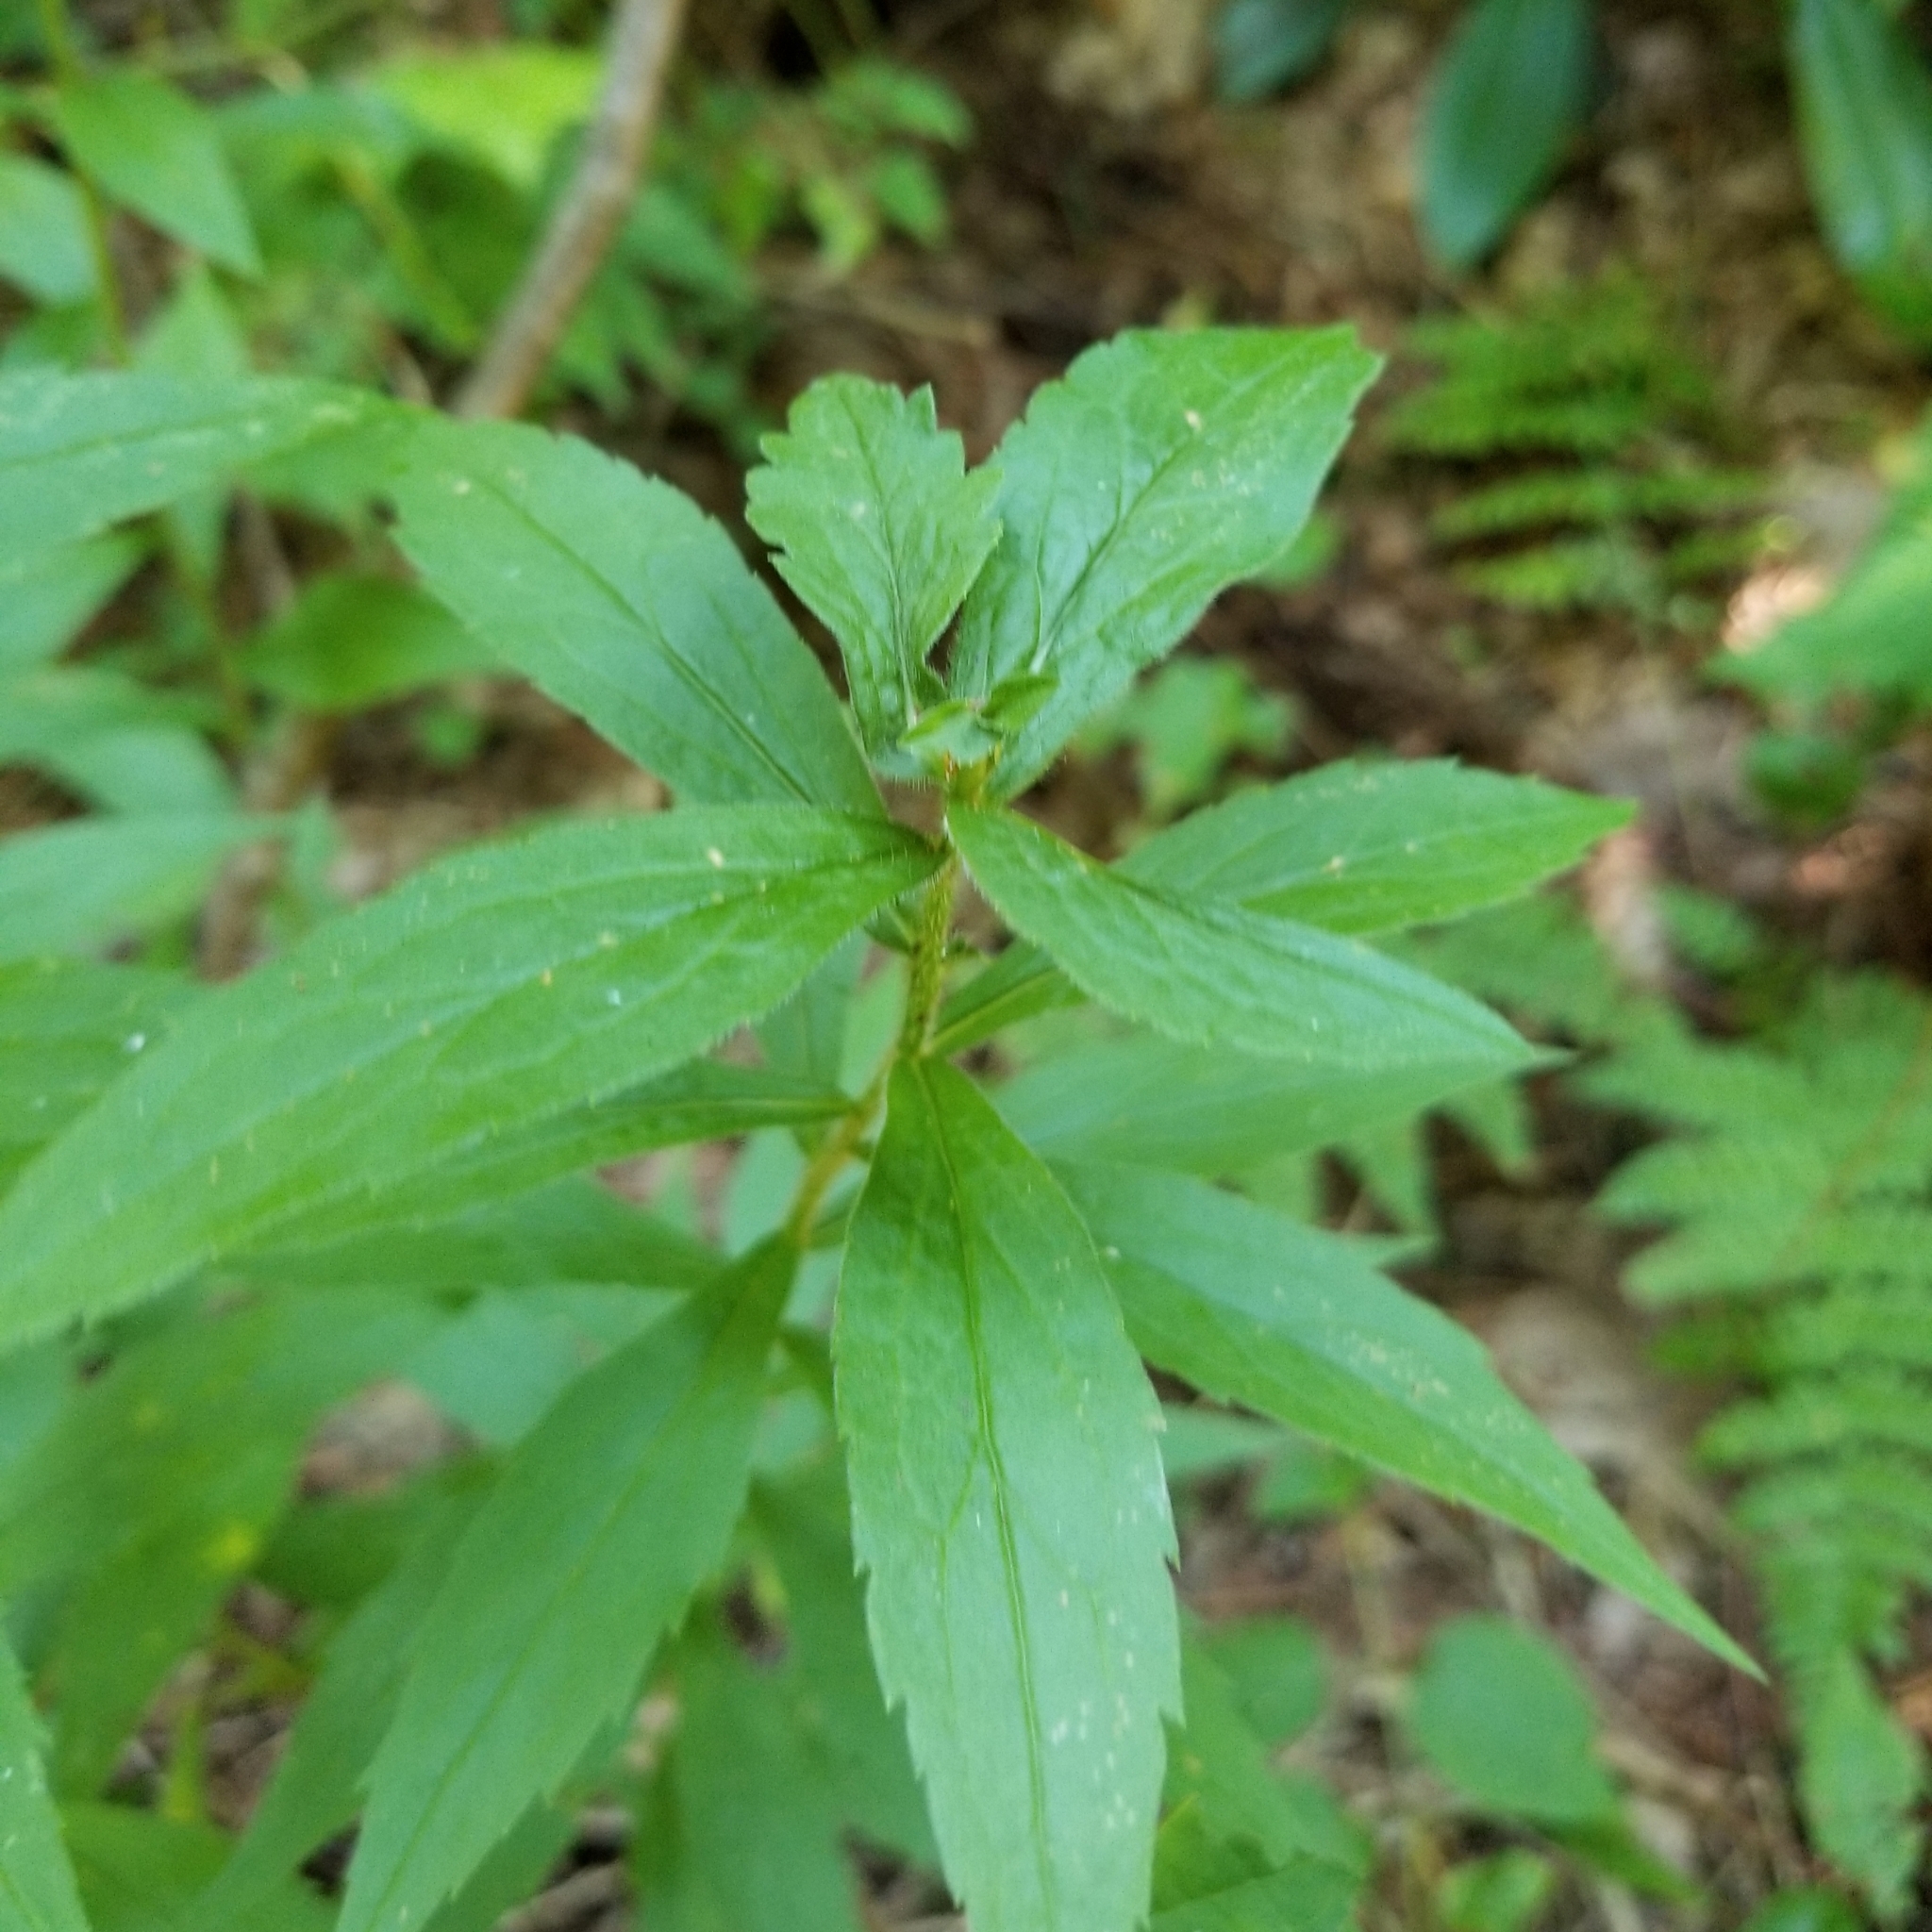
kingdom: Plantae
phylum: Tracheophyta
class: Magnoliopsida
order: Asterales
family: Asteraceae
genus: Solidago
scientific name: Solidago rugosa
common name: Rough-stemmed goldenrod
